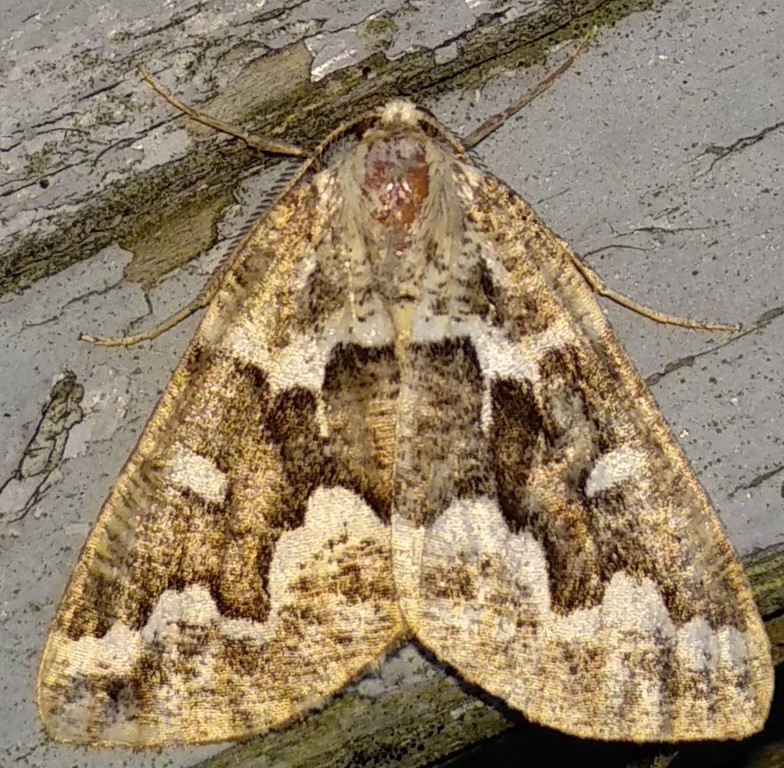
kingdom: Animalia
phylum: Arthropoda
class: Insecta
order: Lepidoptera
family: Geometridae
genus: Caripeta
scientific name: Caripeta divisata
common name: Gray spruce looper
